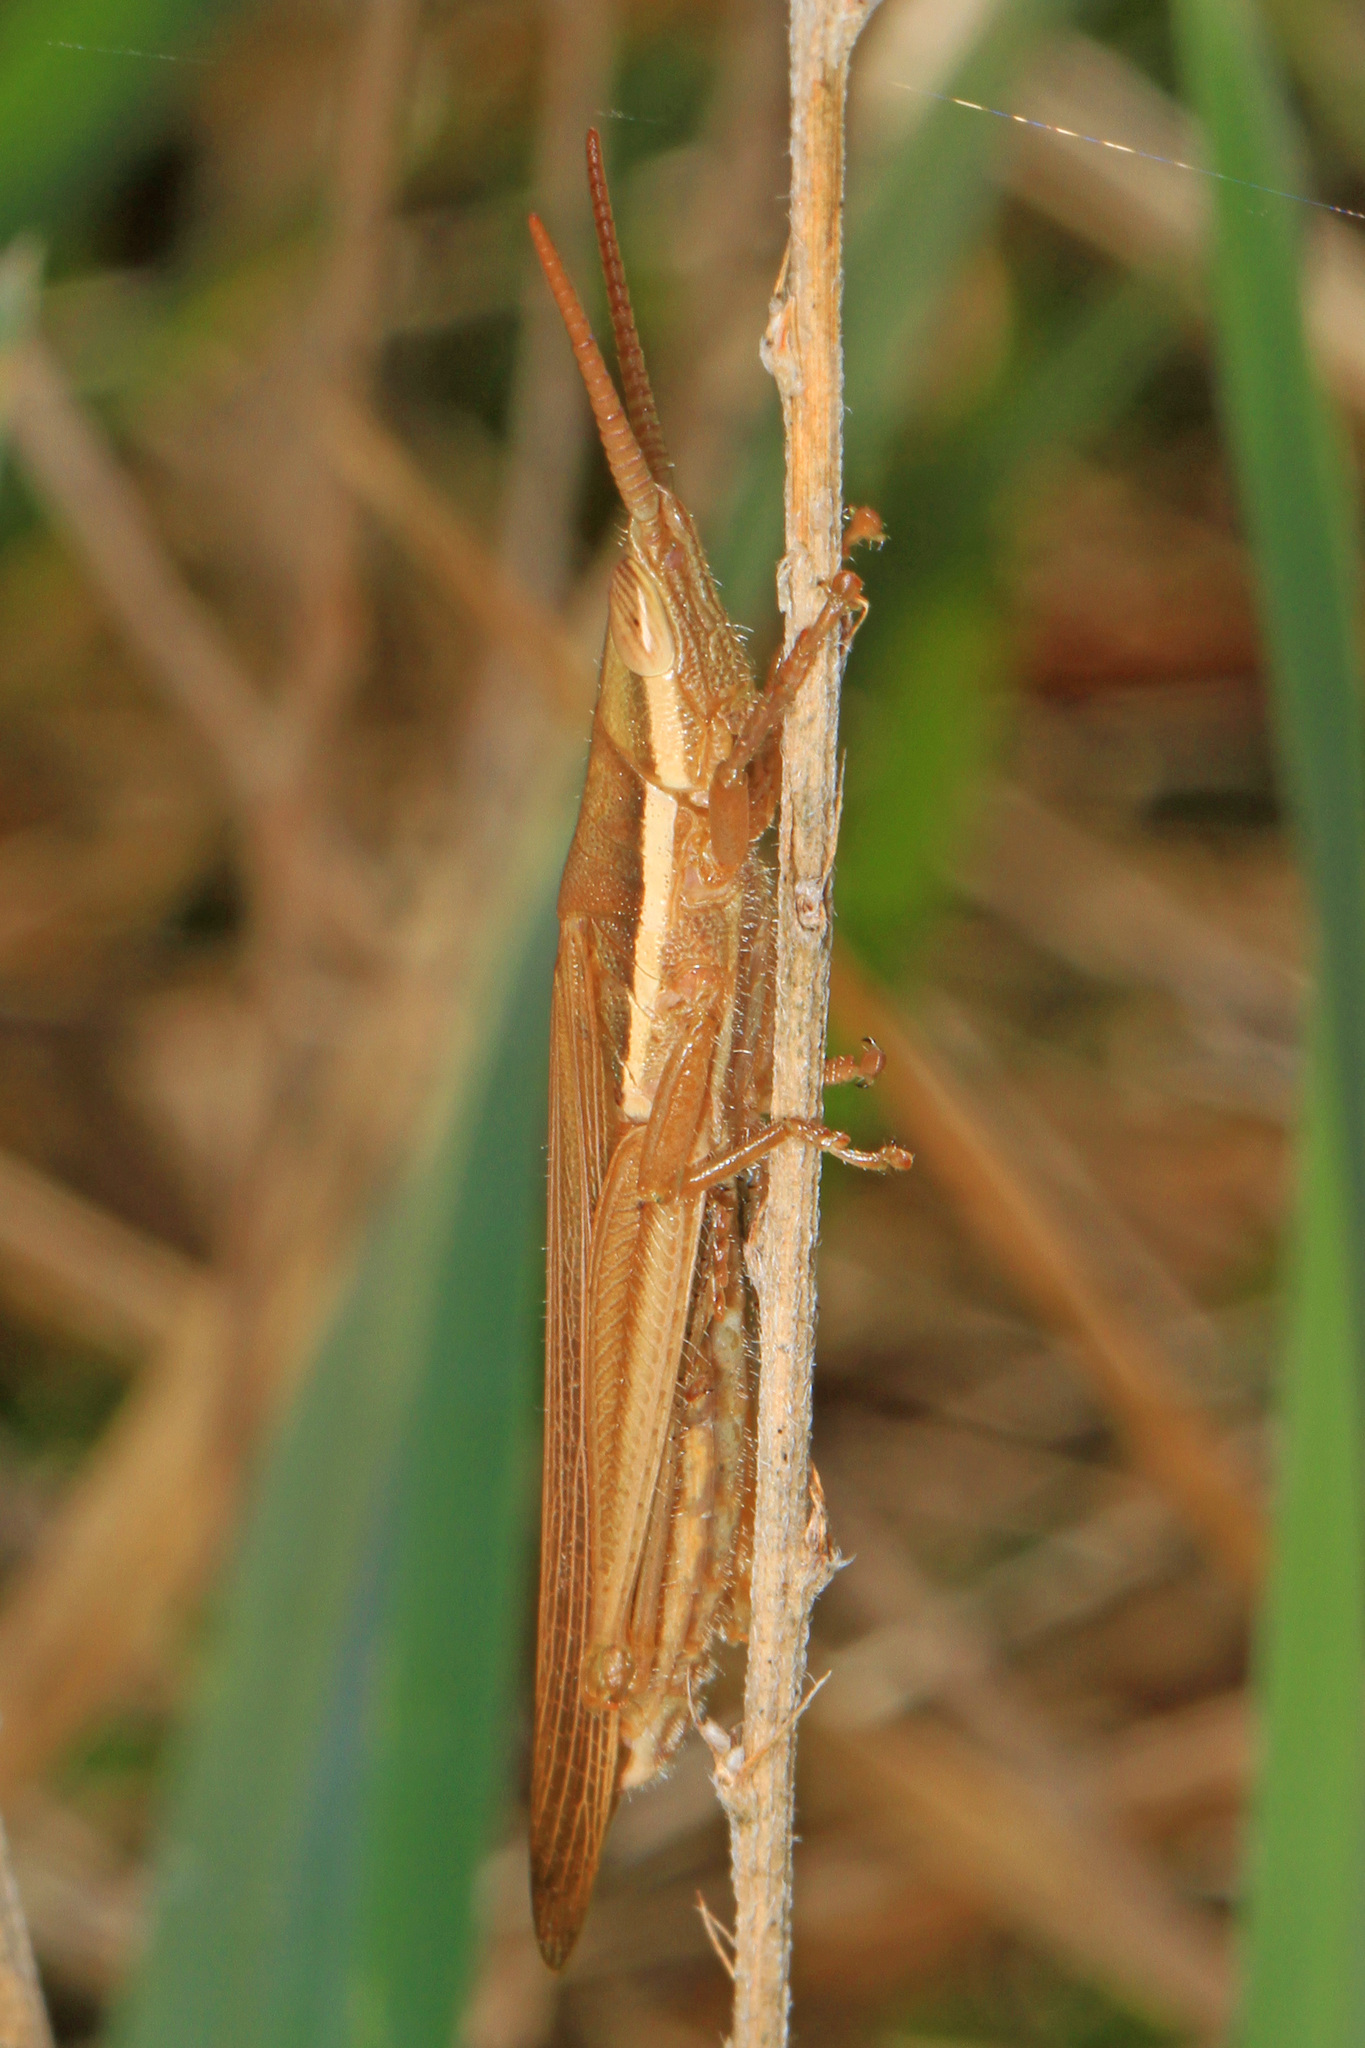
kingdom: Animalia
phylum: Arthropoda
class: Insecta
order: Orthoptera
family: Acrididae
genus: Leptysma
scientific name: Leptysma marginicollis
